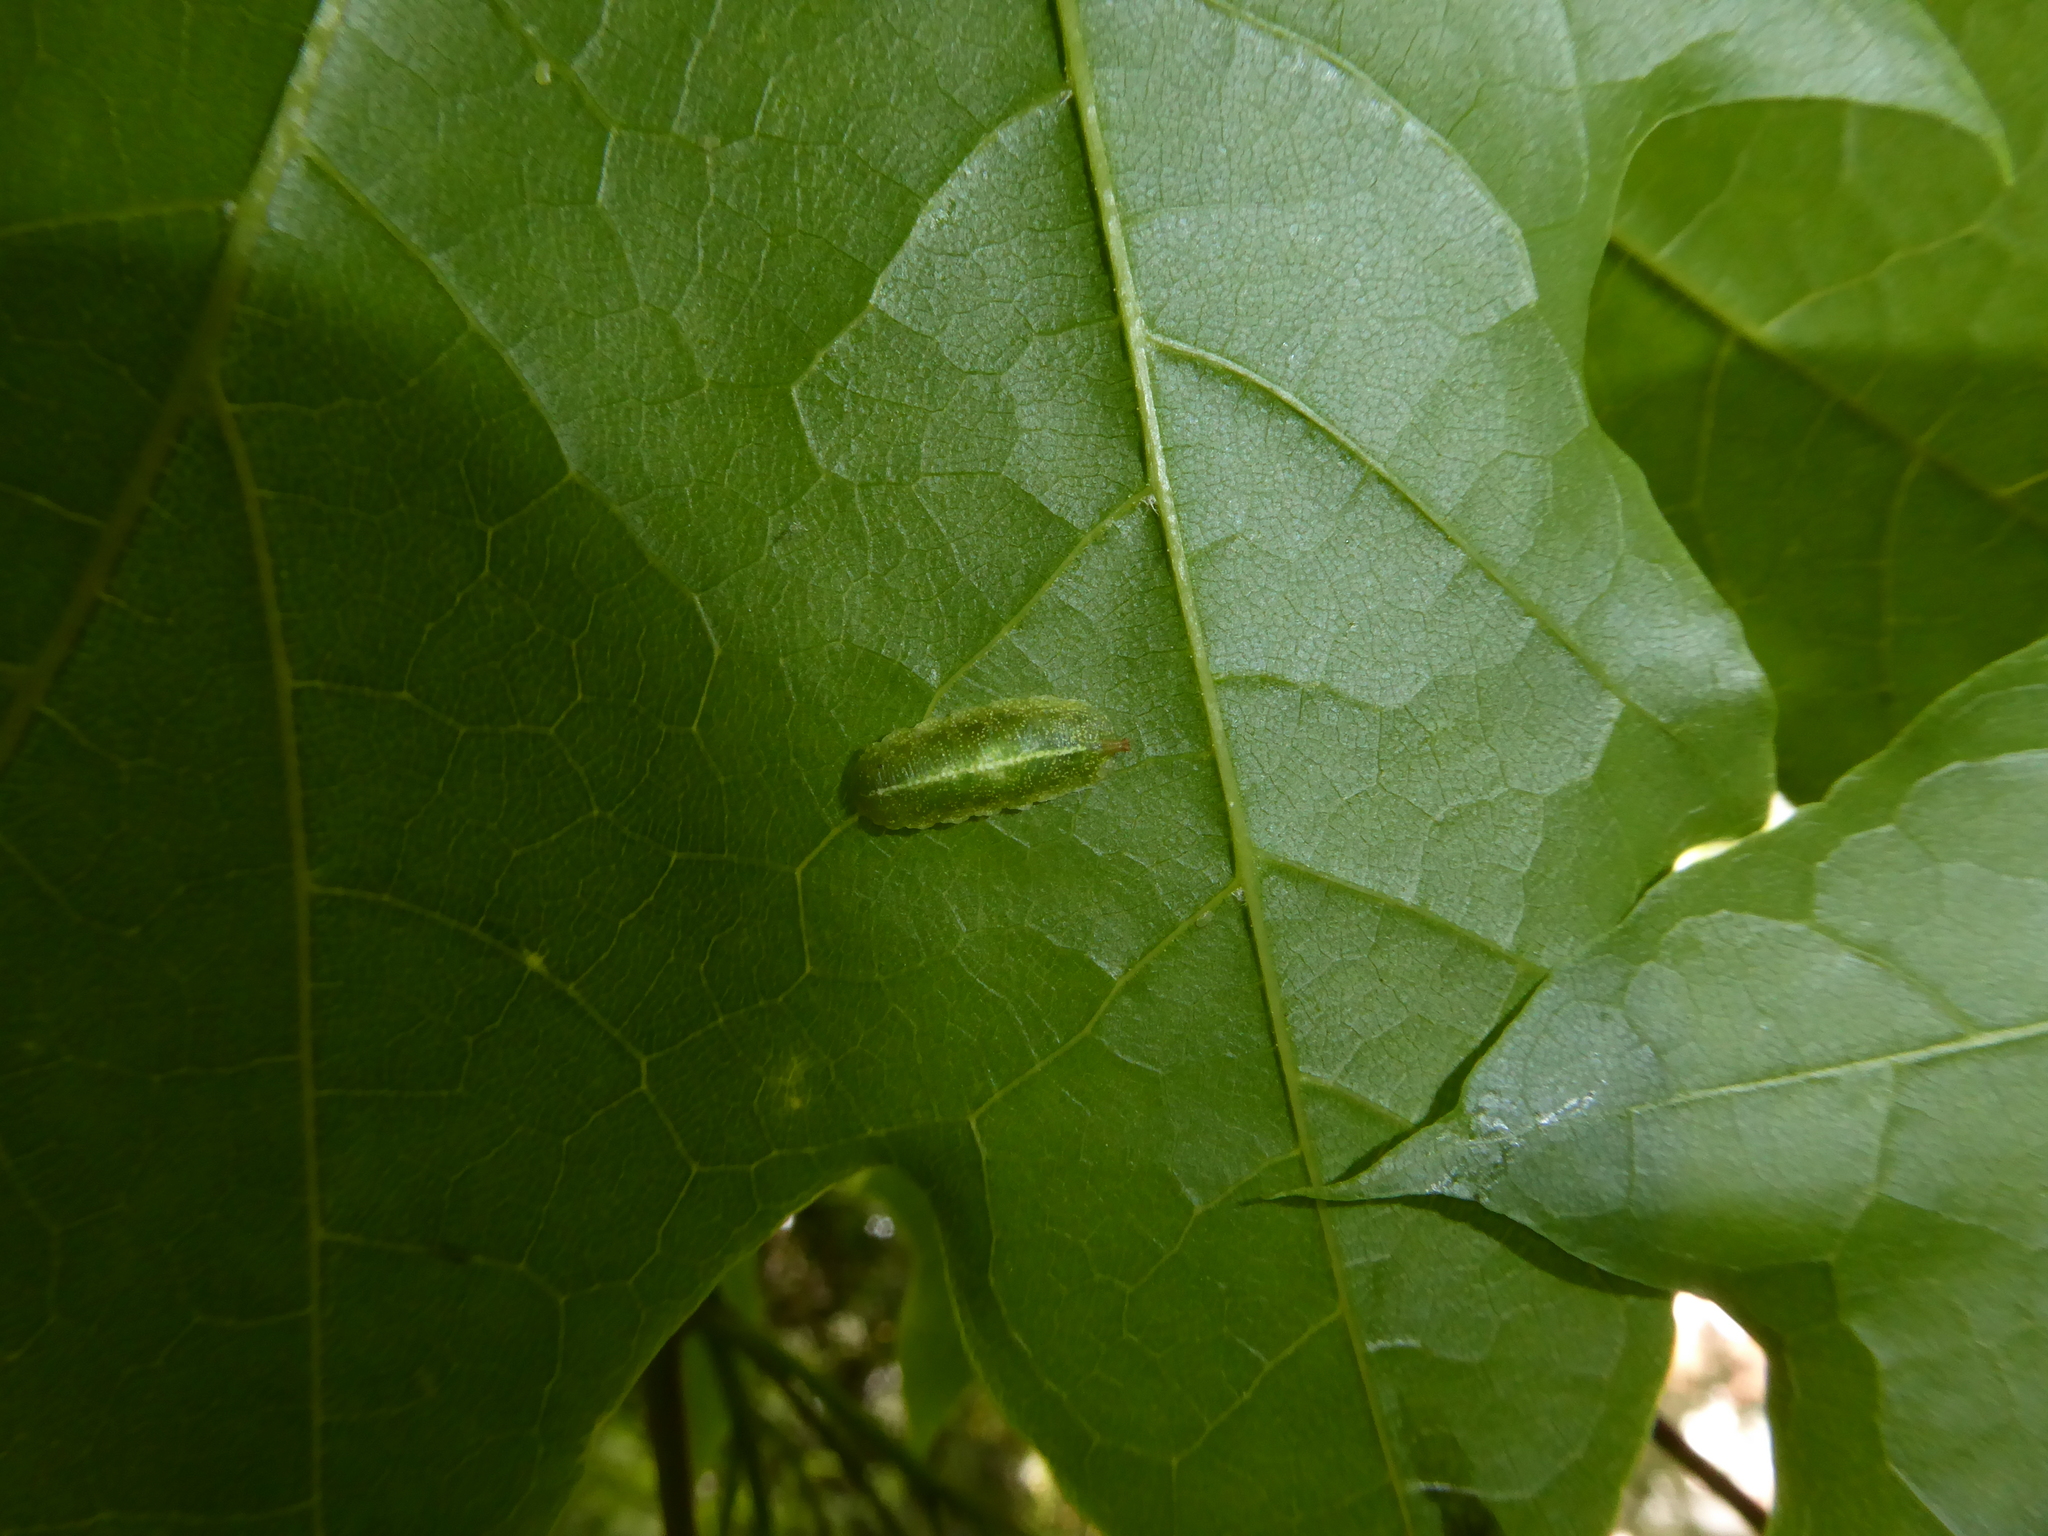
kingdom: Animalia
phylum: Arthropoda
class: Insecta
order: Diptera
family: Syrphidae
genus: Epistrophe
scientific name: Epistrophe eligans
